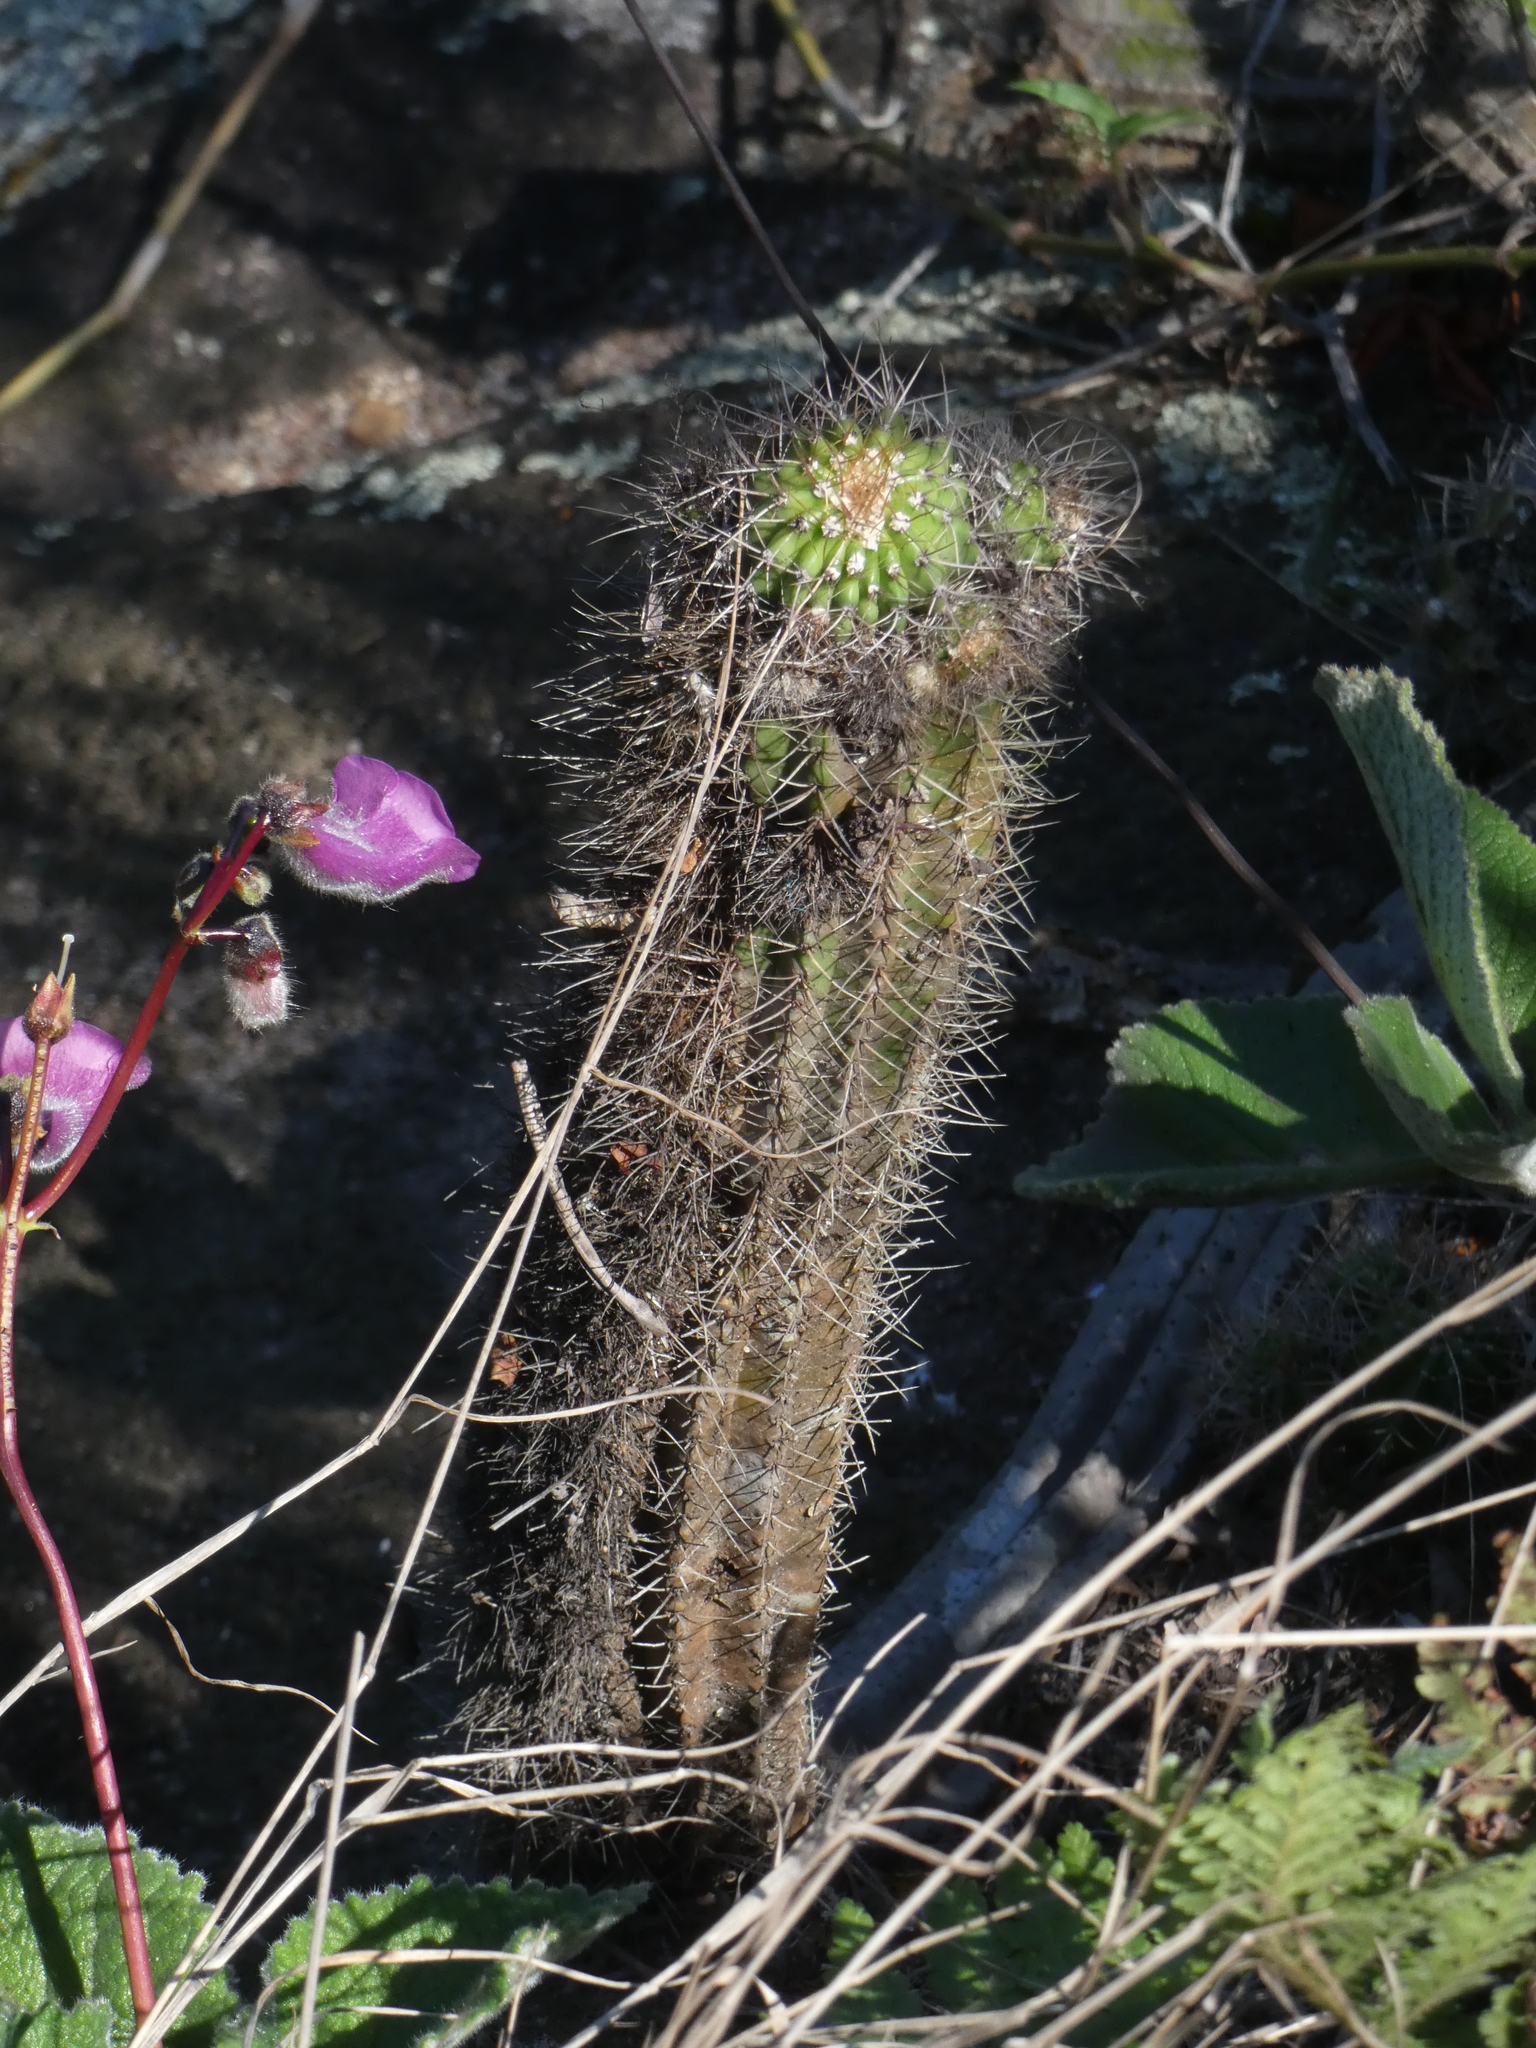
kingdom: Plantae
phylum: Tracheophyta
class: Magnoliopsida
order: Caryophyllales
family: Cactaceae
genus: Coleocephalocereus
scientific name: Coleocephalocereus fluminensis
